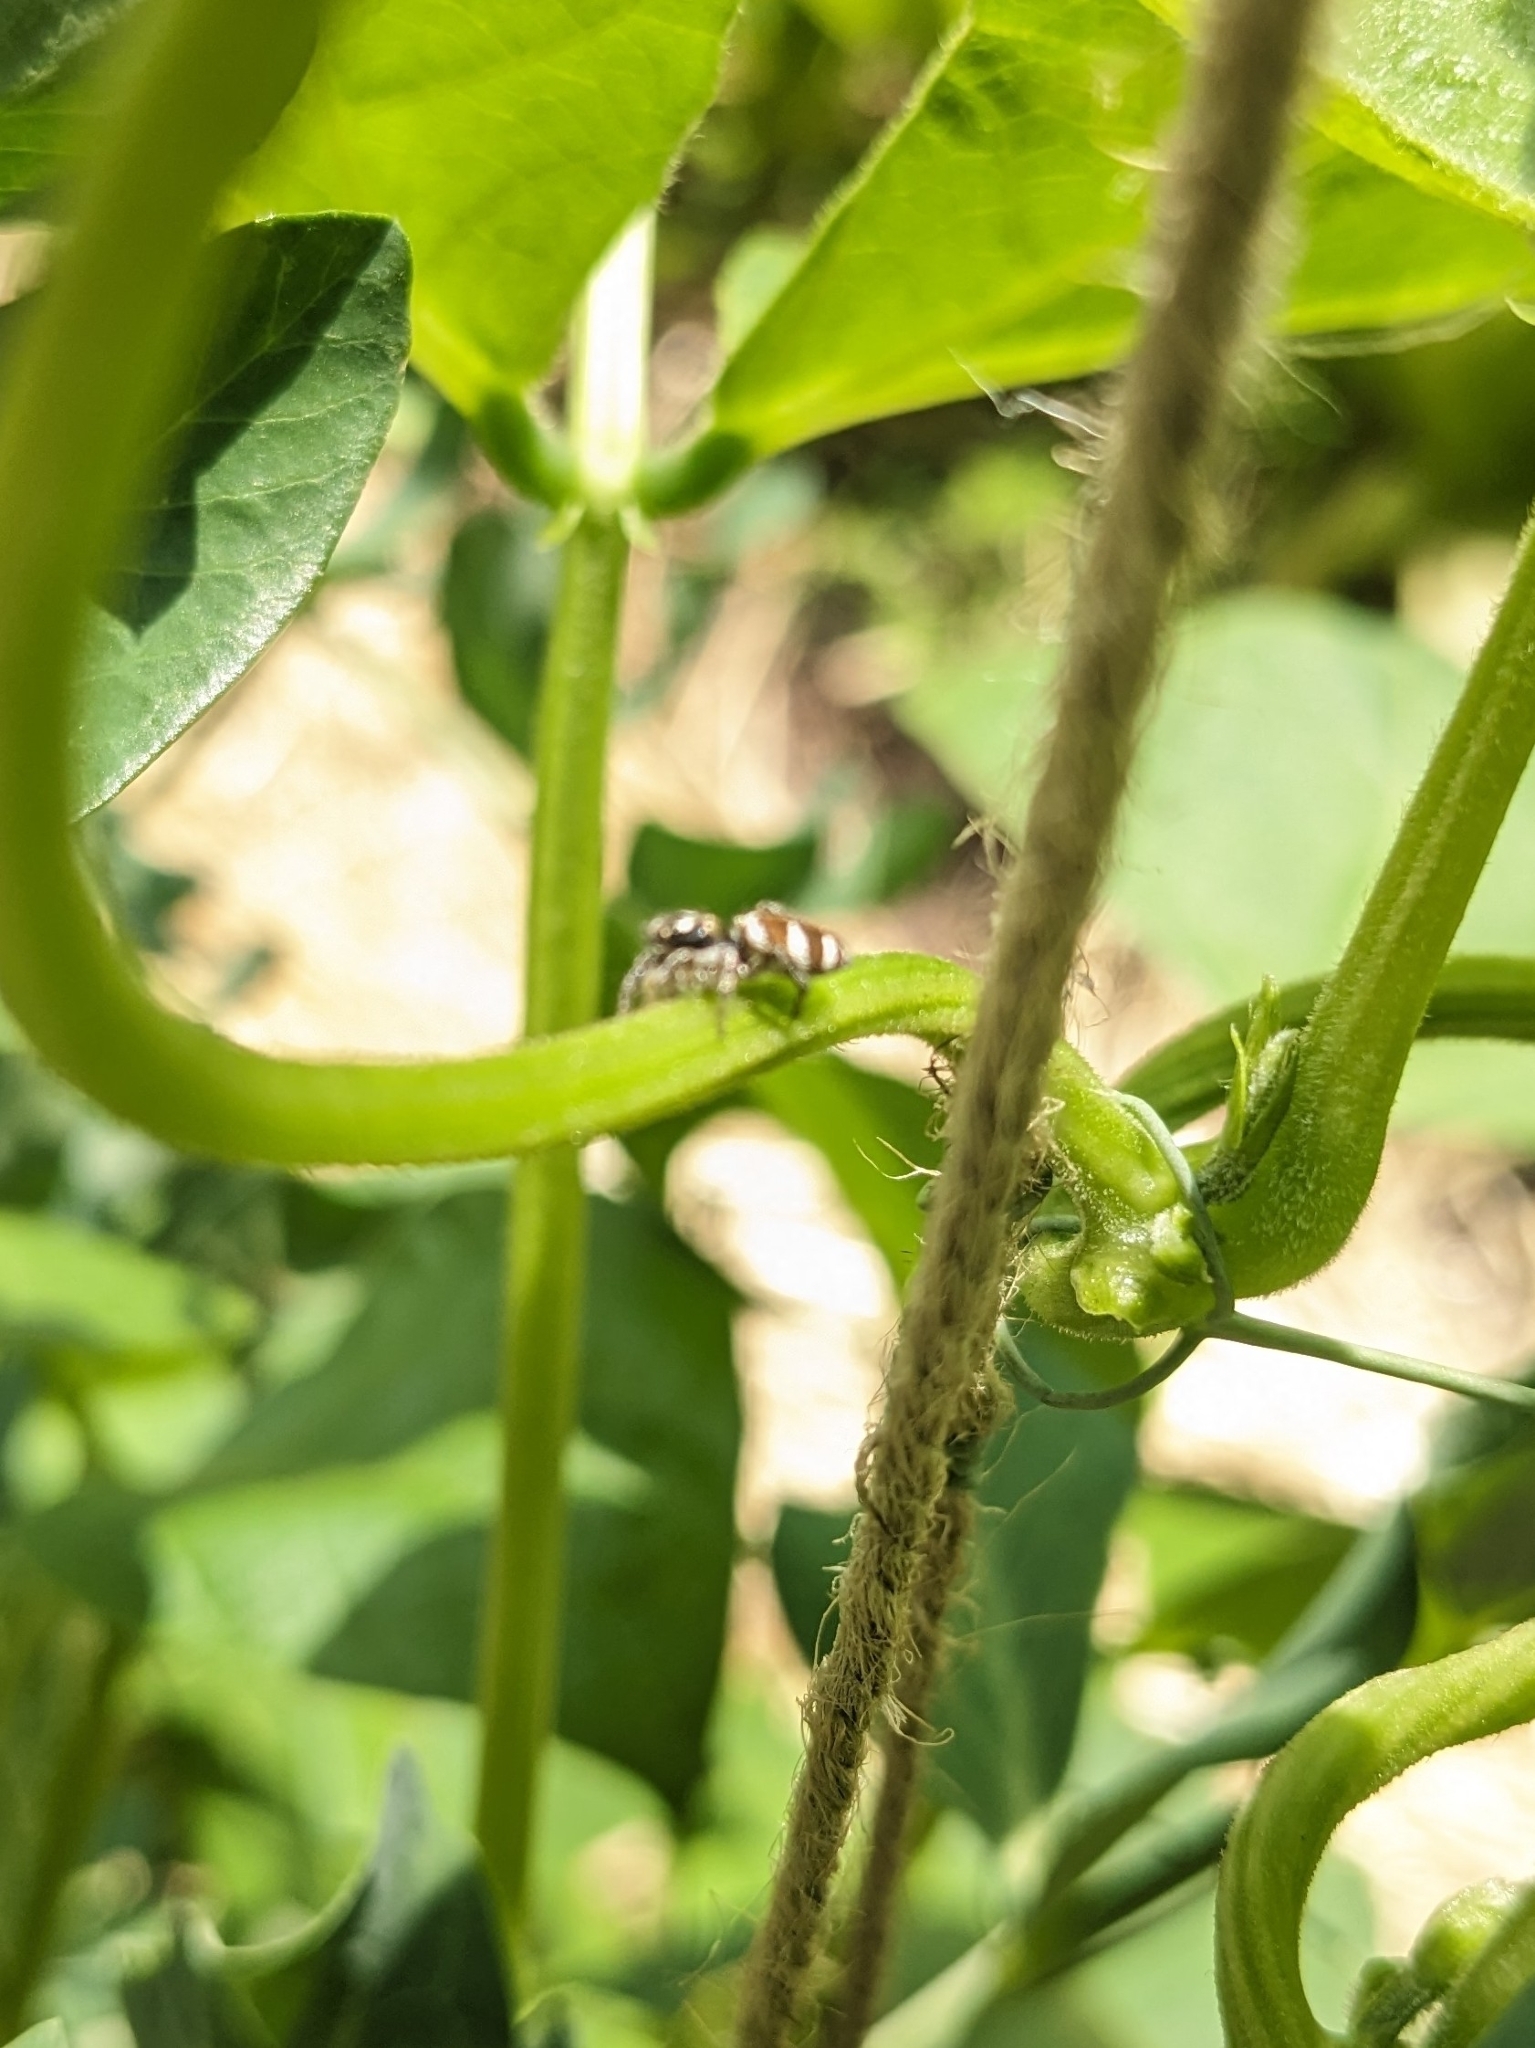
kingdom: Animalia
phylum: Arthropoda
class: Arachnida
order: Araneae
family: Salticidae
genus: Salticus
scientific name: Salticus scenicus
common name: Zebra jumper
